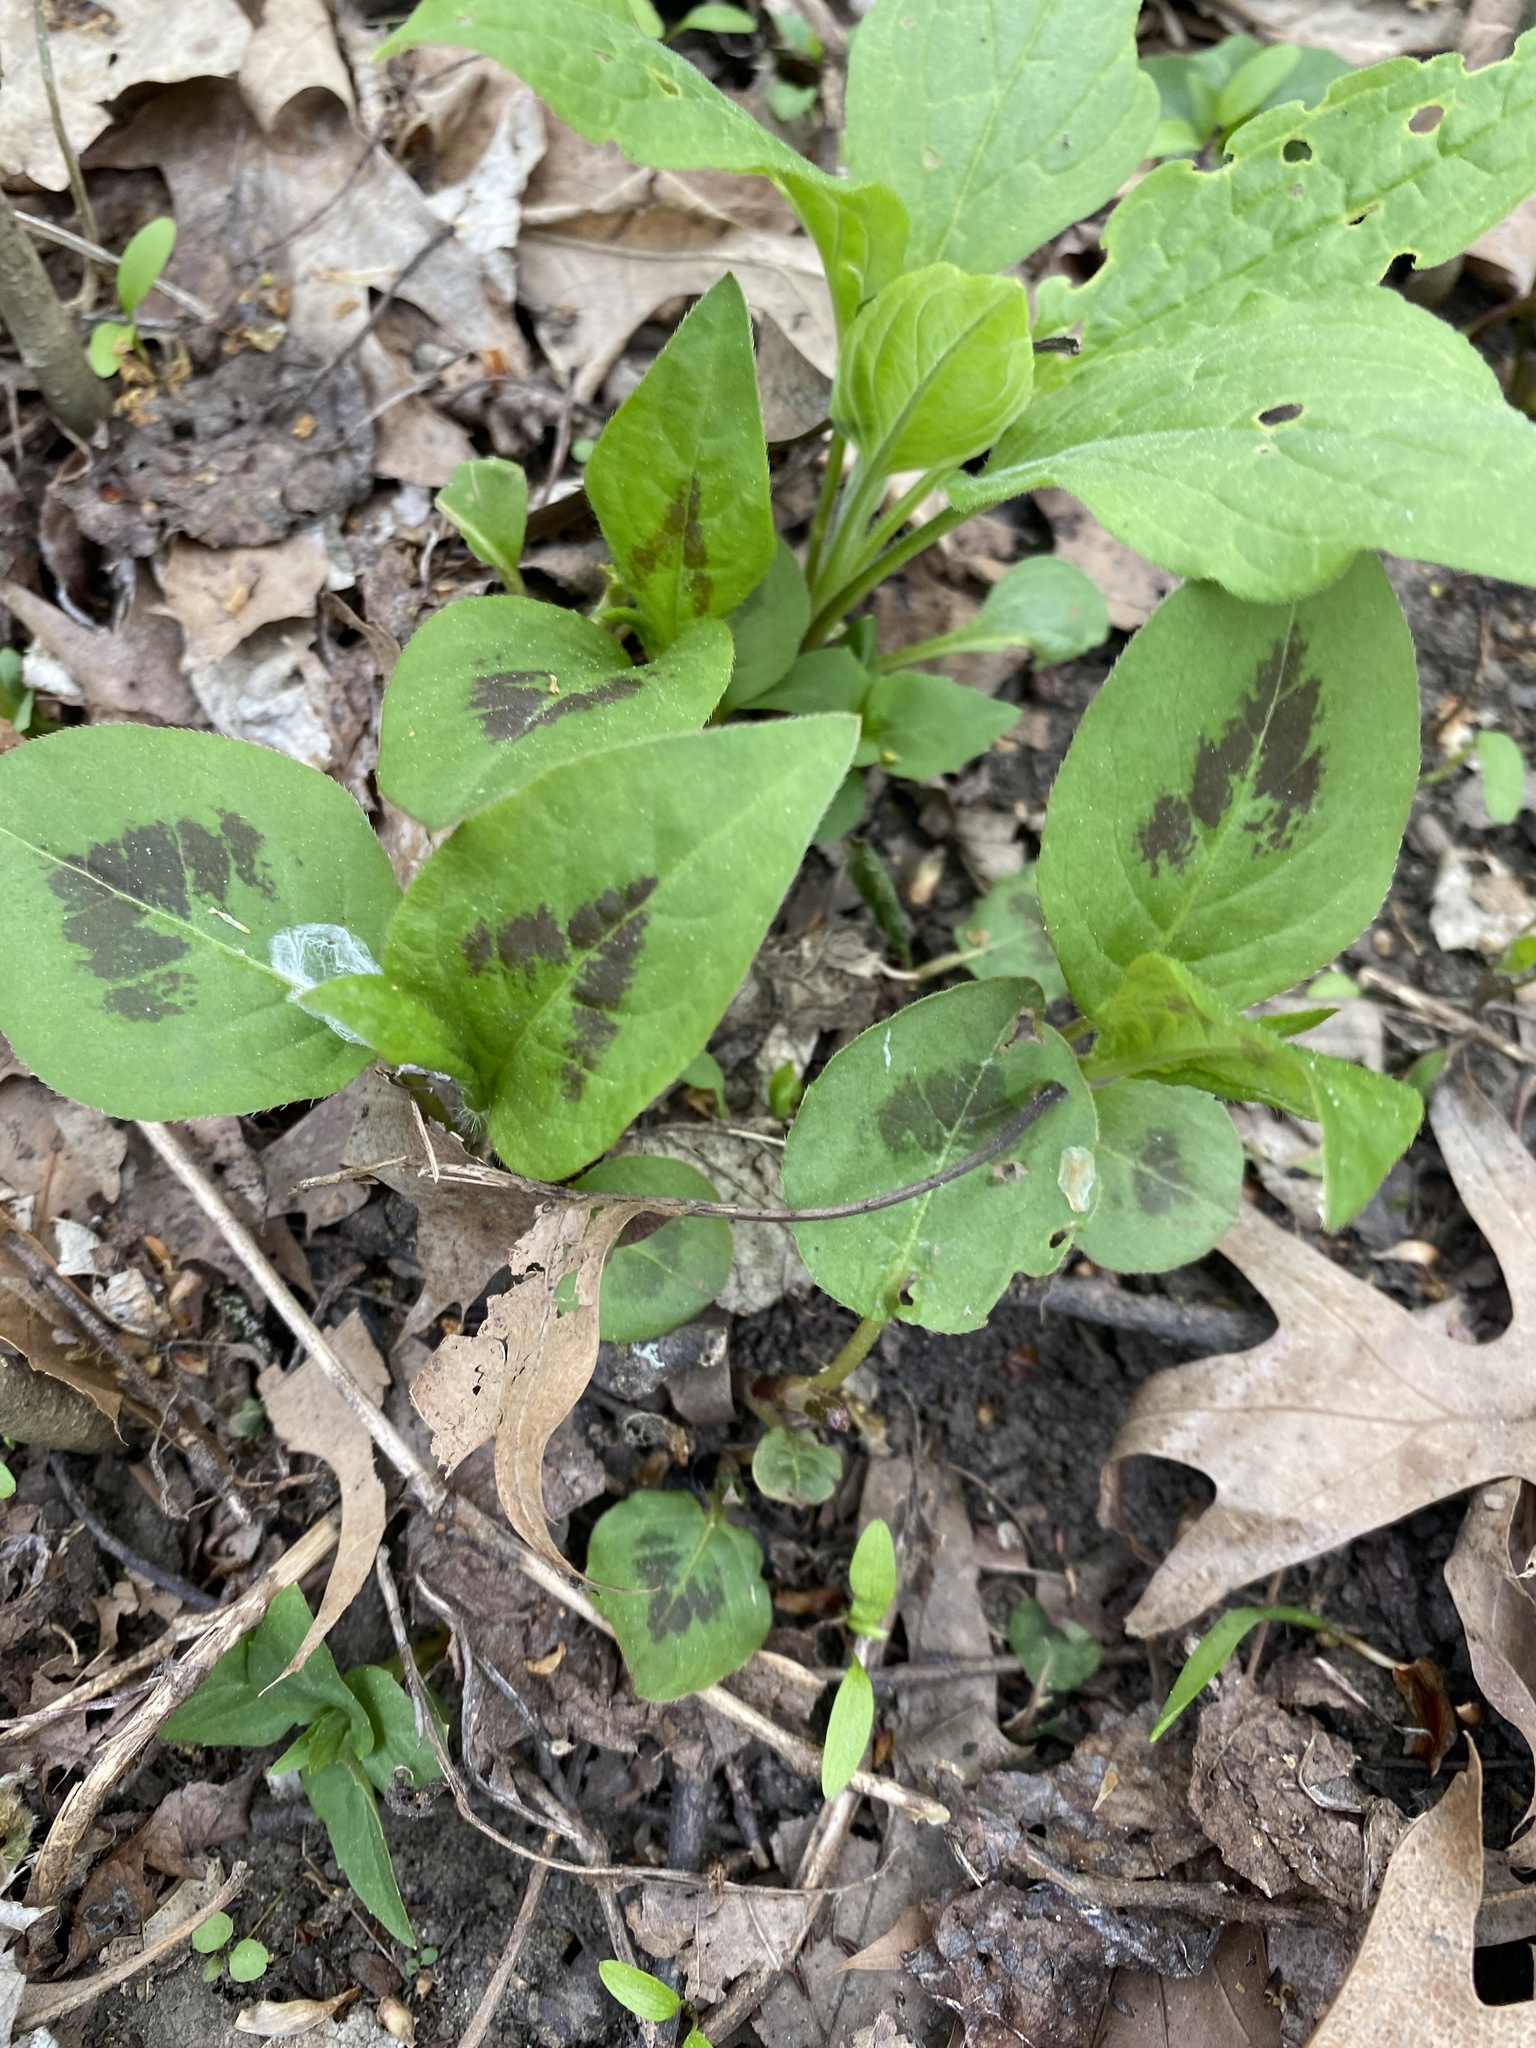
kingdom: Plantae
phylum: Tracheophyta
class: Magnoliopsida
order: Caryophyllales
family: Polygonaceae
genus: Persicaria
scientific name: Persicaria virginiana
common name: Jumpseed
